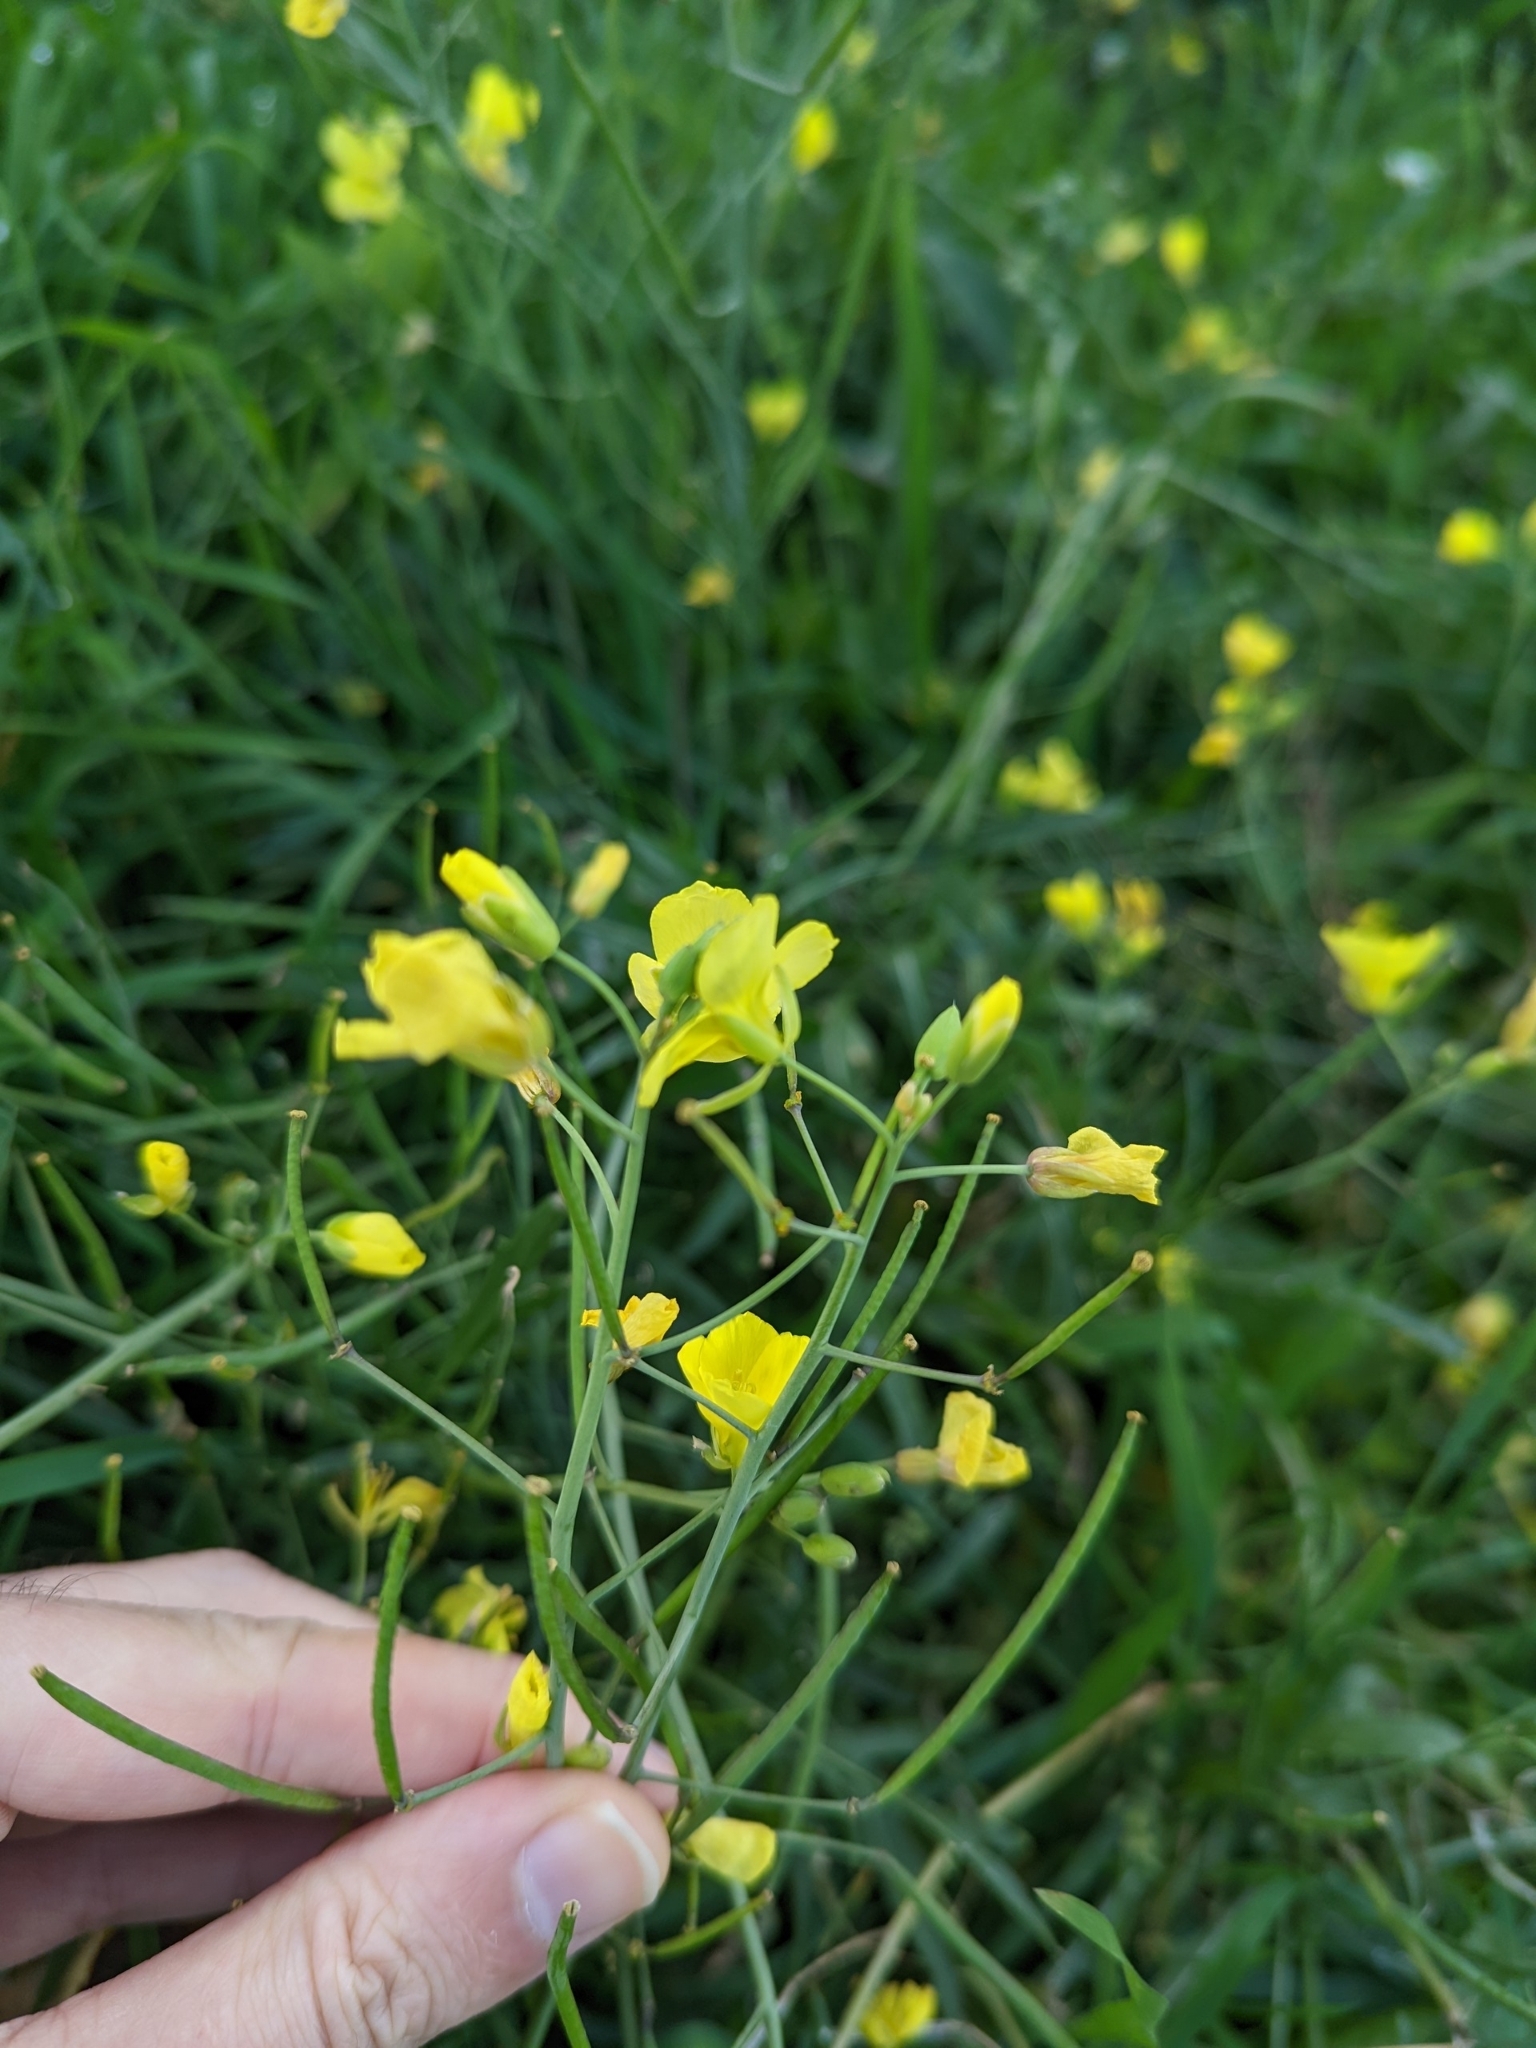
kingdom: Plantae
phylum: Tracheophyta
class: Magnoliopsida
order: Brassicales
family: Brassicaceae
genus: Diplotaxis
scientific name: Diplotaxis tenuifolia
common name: Perennial wall-rocket
